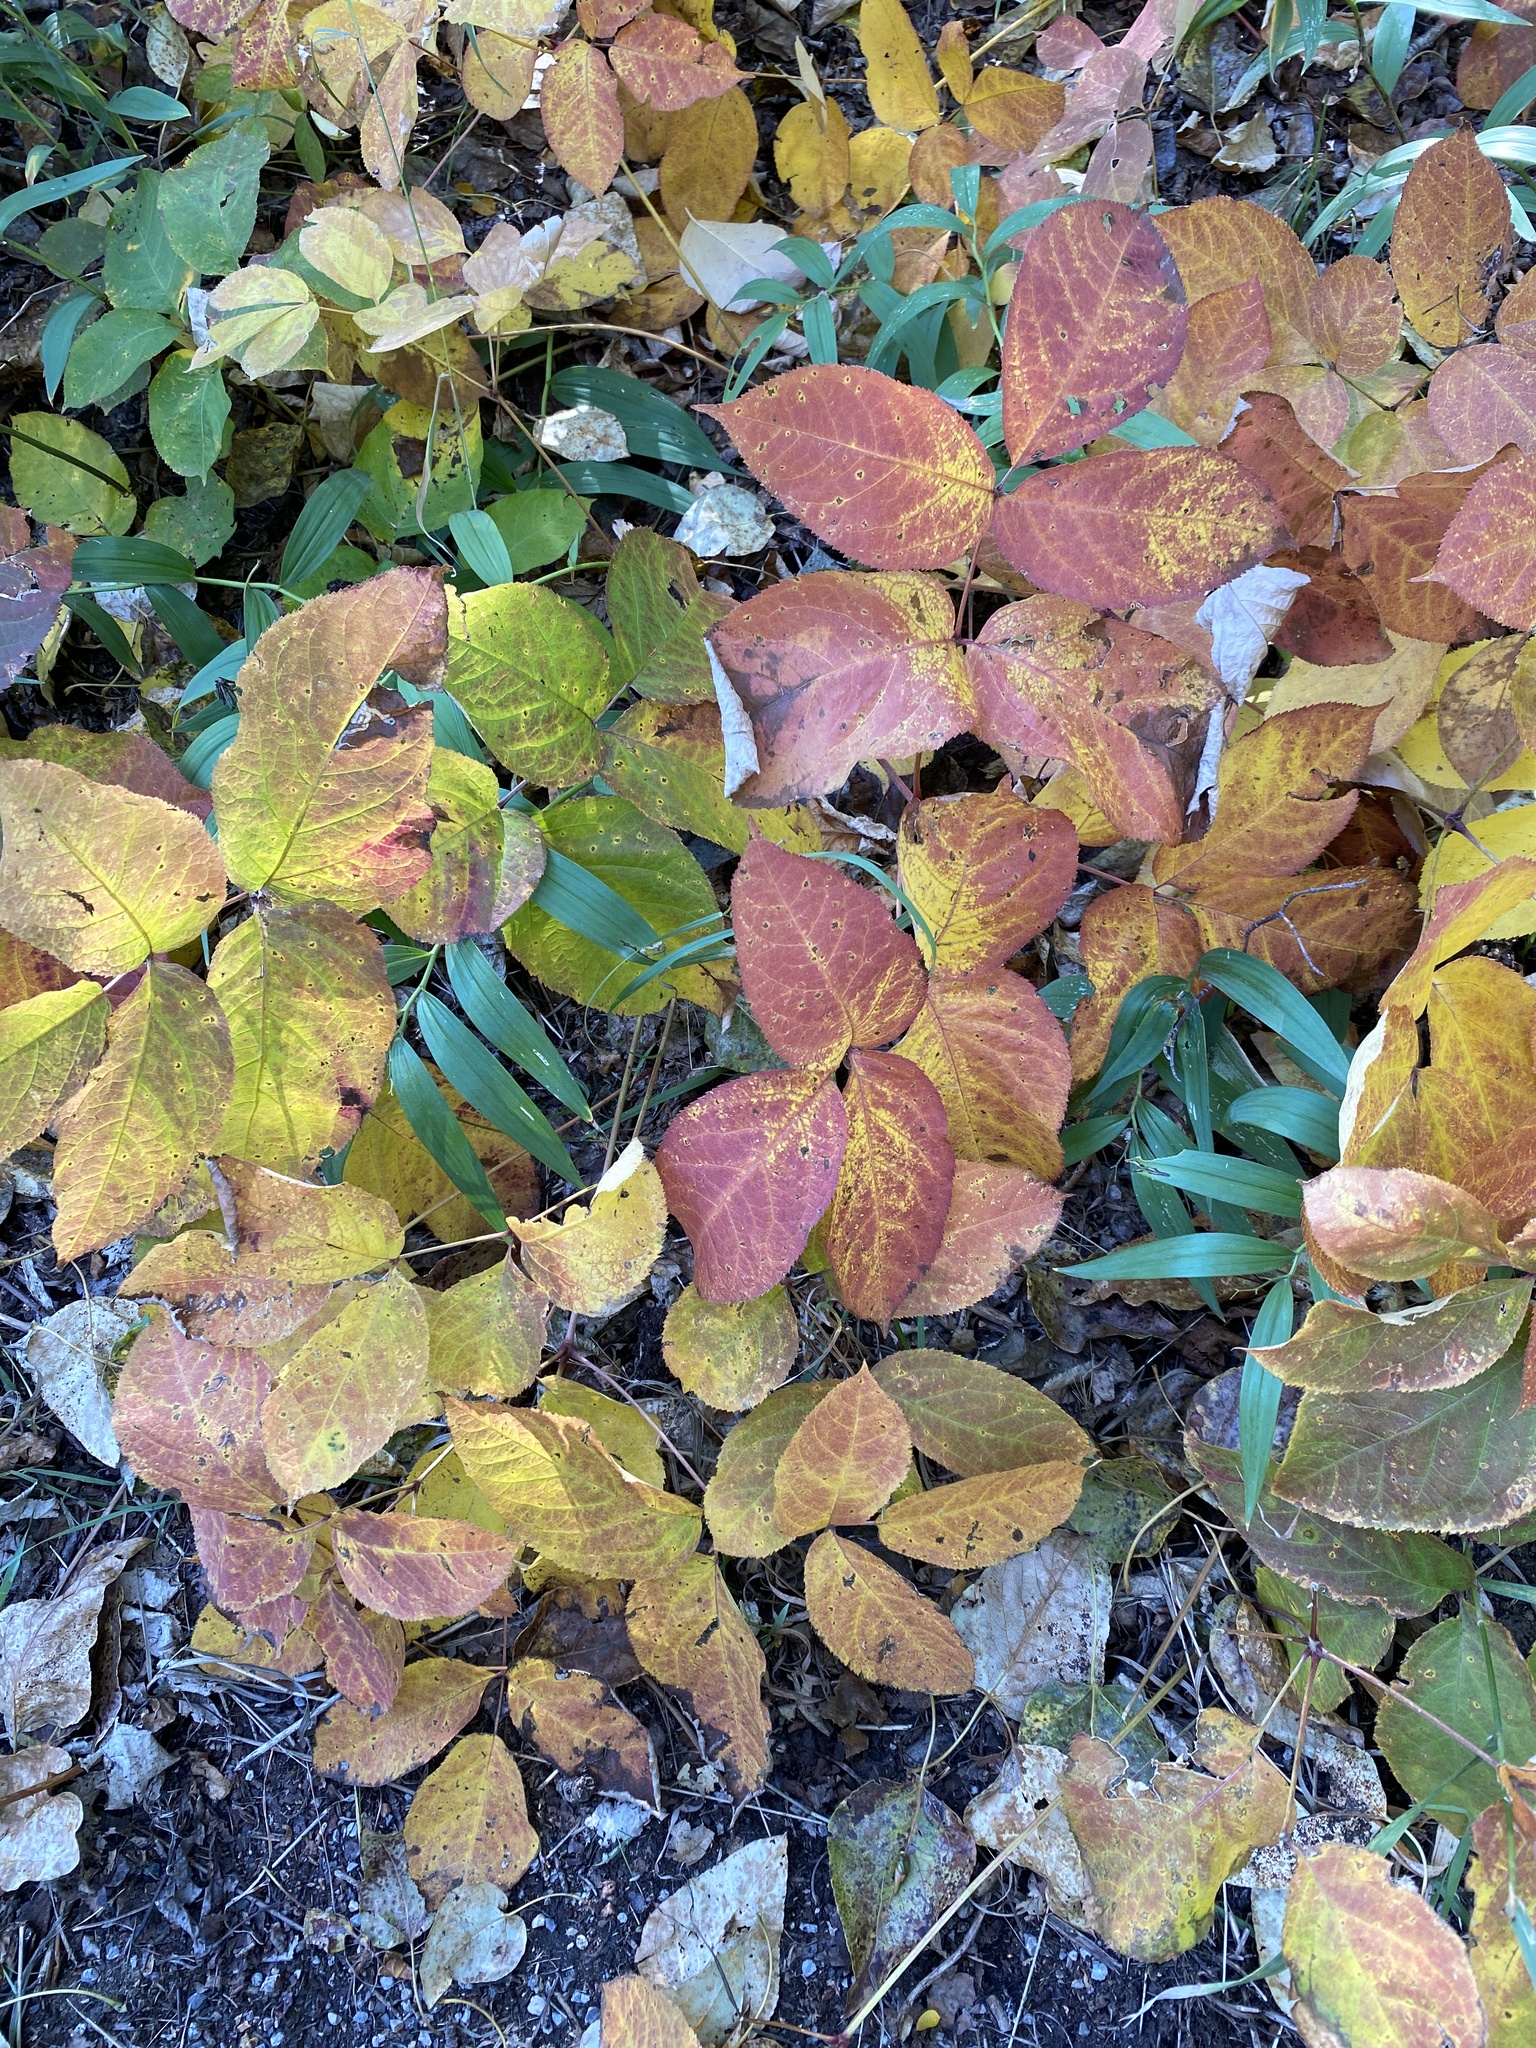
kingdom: Plantae
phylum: Tracheophyta
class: Magnoliopsida
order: Apiales
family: Araliaceae
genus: Aralia
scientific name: Aralia nudicaulis
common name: Wild sarsaparilla
